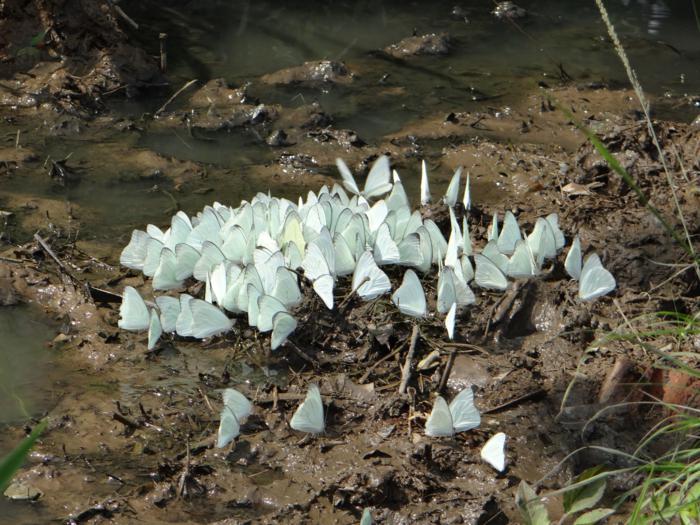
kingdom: Animalia
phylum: Arthropoda
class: Insecta
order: Lepidoptera
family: Pieridae
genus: Glutophrissa
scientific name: Glutophrissa drusilla
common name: Florida white
